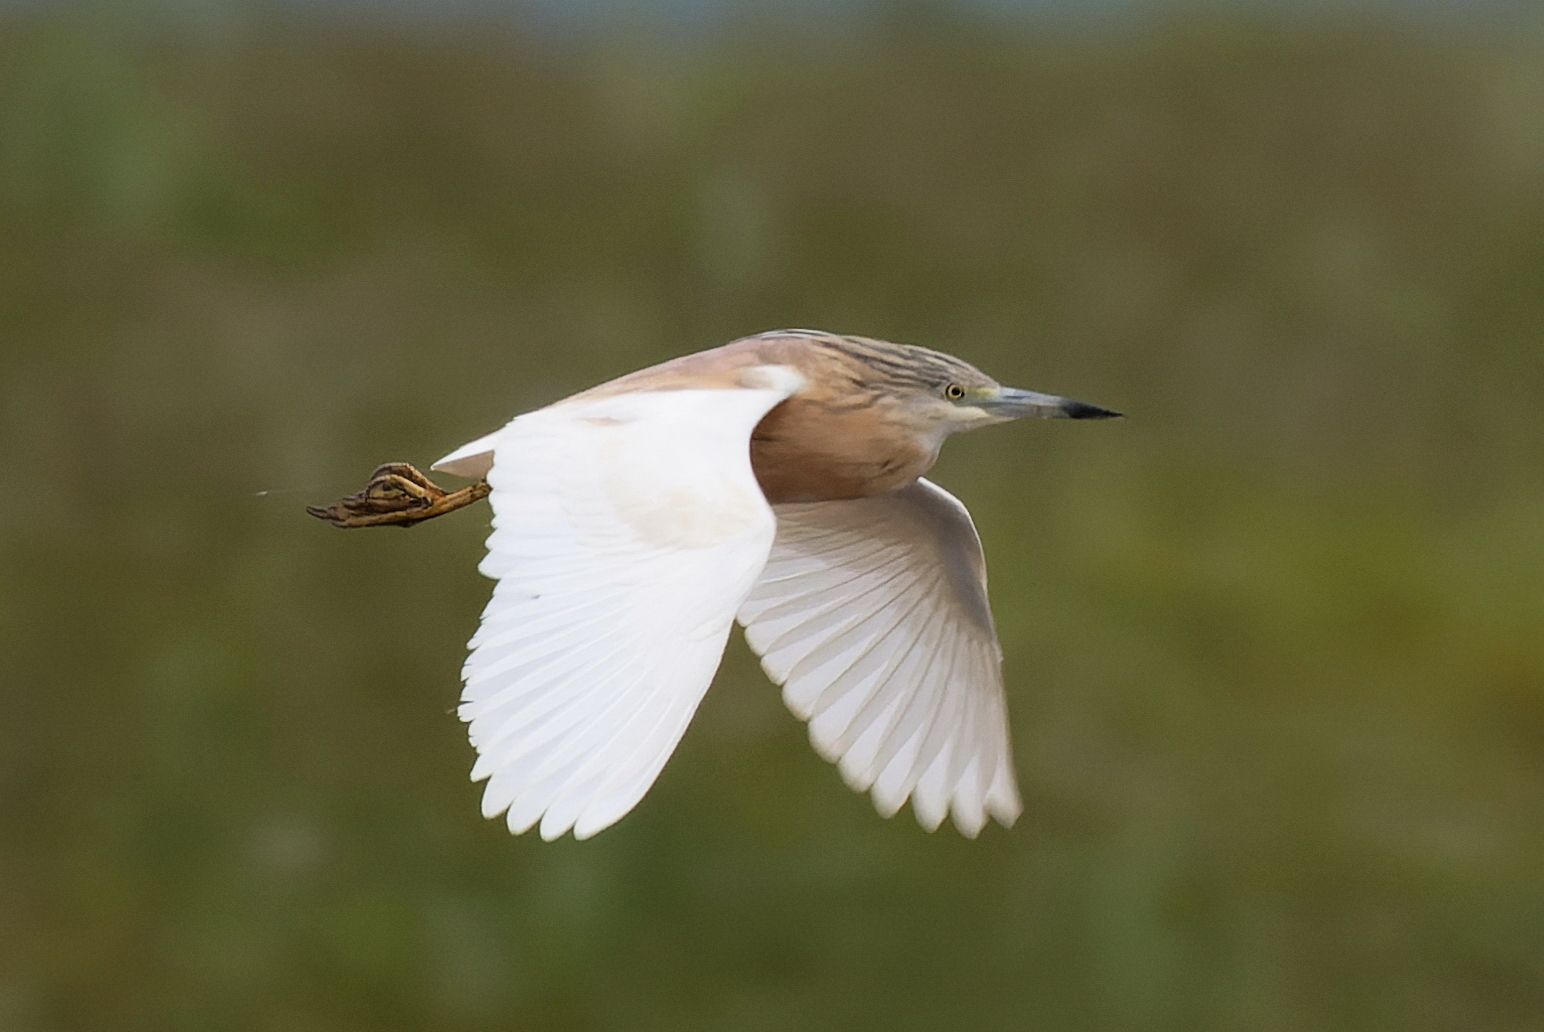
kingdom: Animalia
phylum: Chordata
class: Aves
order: Pelecaniformes
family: Ardeidae
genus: Ardeola
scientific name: Ardeola ralloides
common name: Squacco heron
